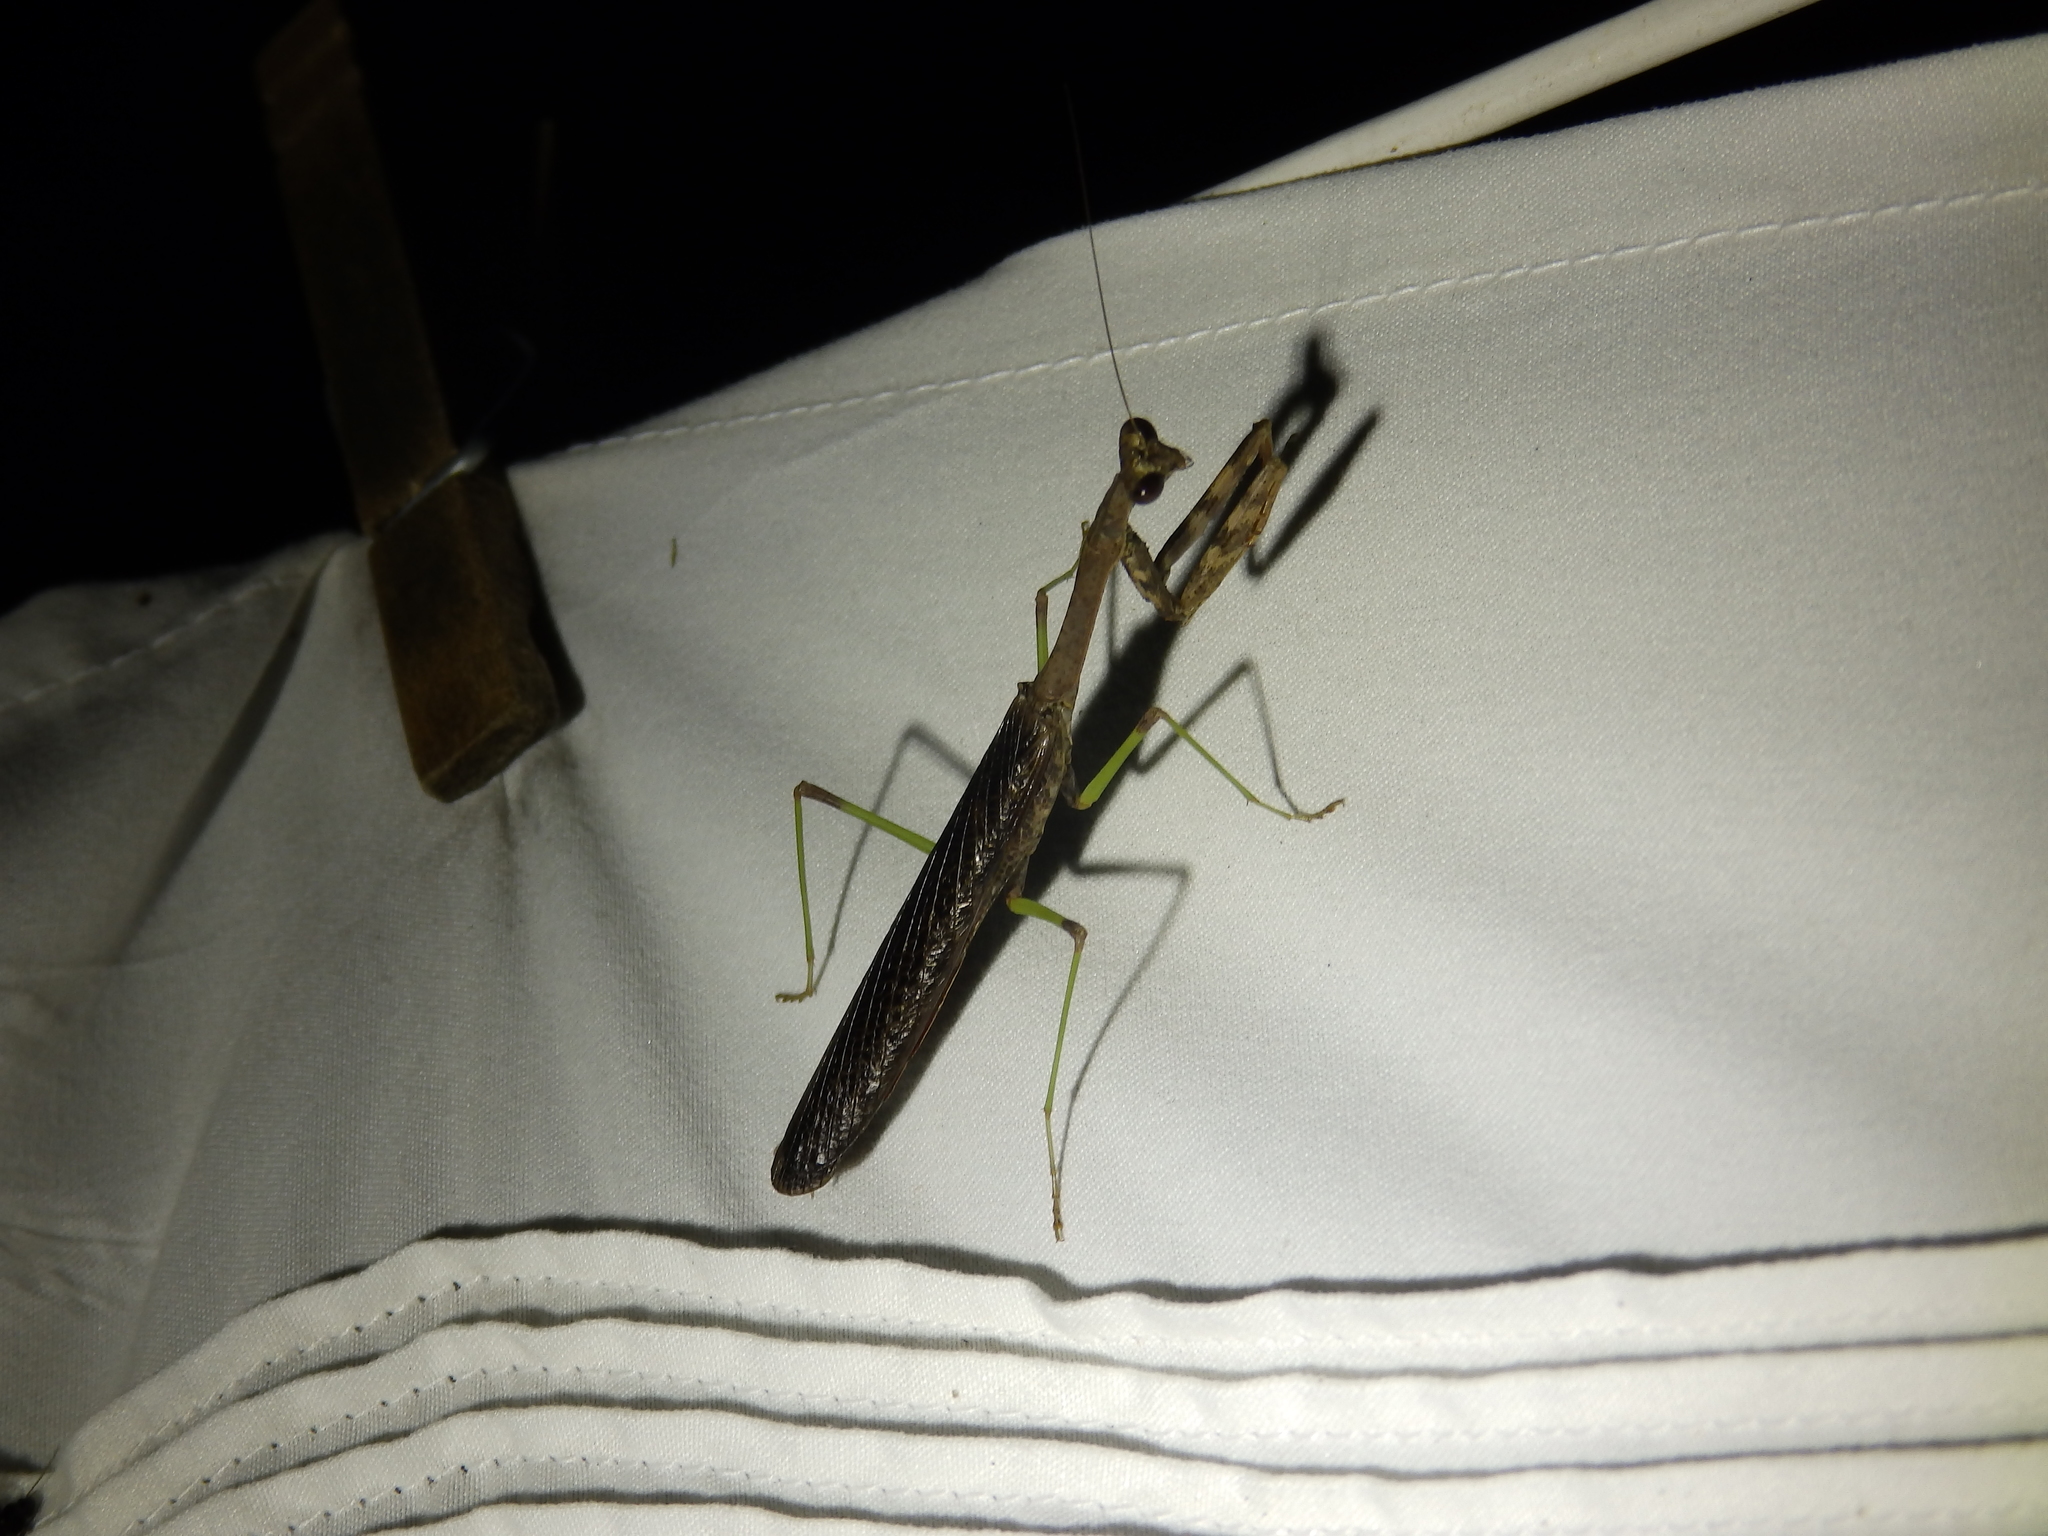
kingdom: Animalia
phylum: Arthropoda
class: Insecta
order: Mantodea
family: Mantidae
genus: Stagmomantis
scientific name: Stagmomantis carolina
